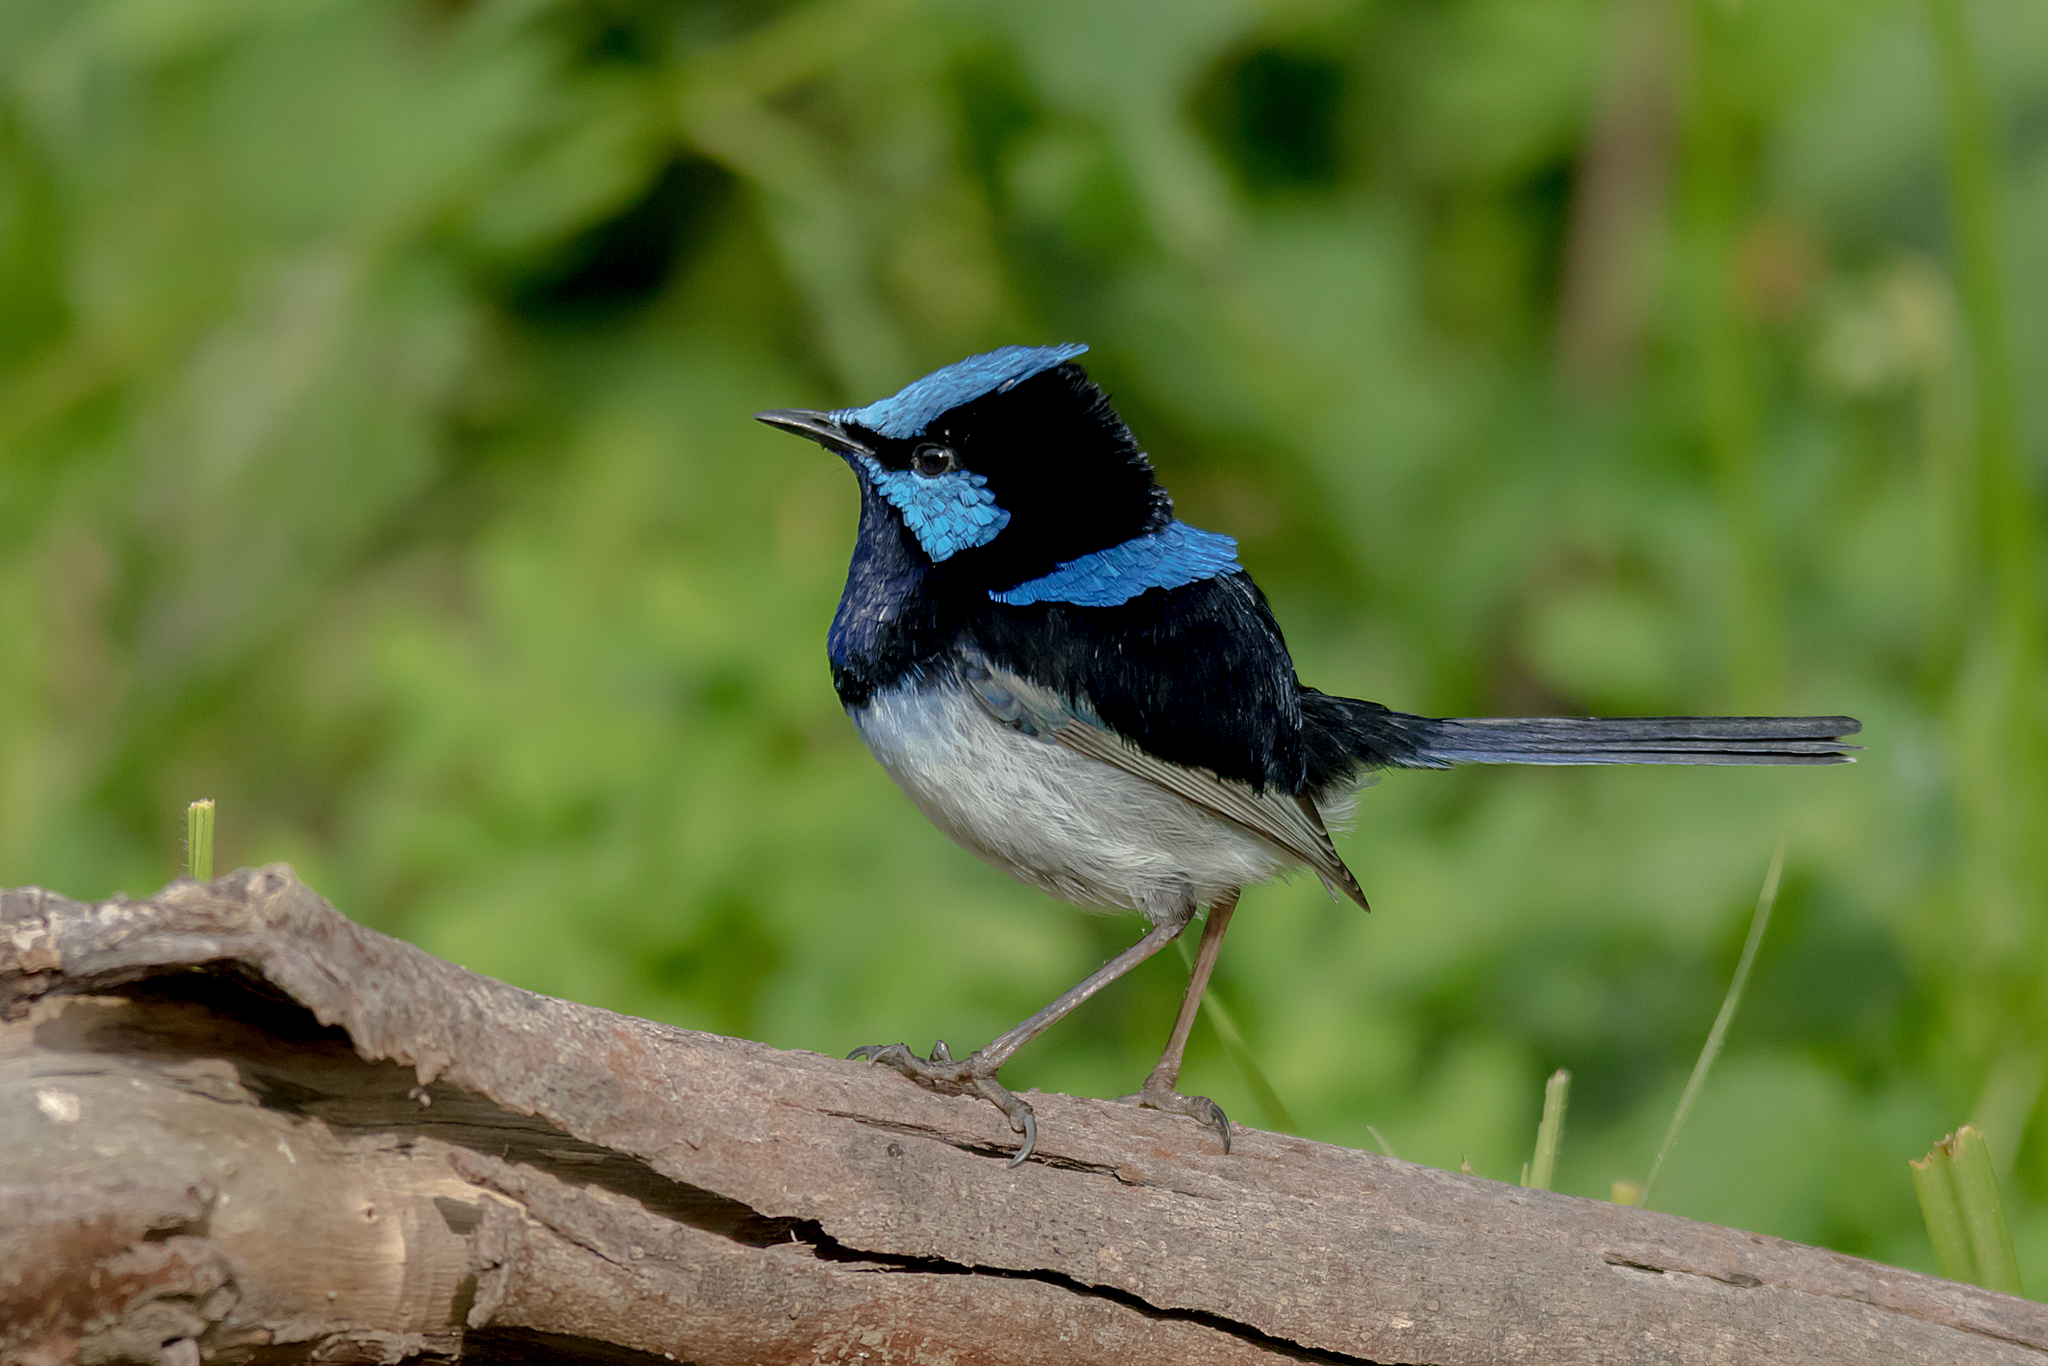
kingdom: Animalia
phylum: Chordata
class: Aves
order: Passeriformes
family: Maluridae
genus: Malurus
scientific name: Malurus cyaneus
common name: Superb fairywren
